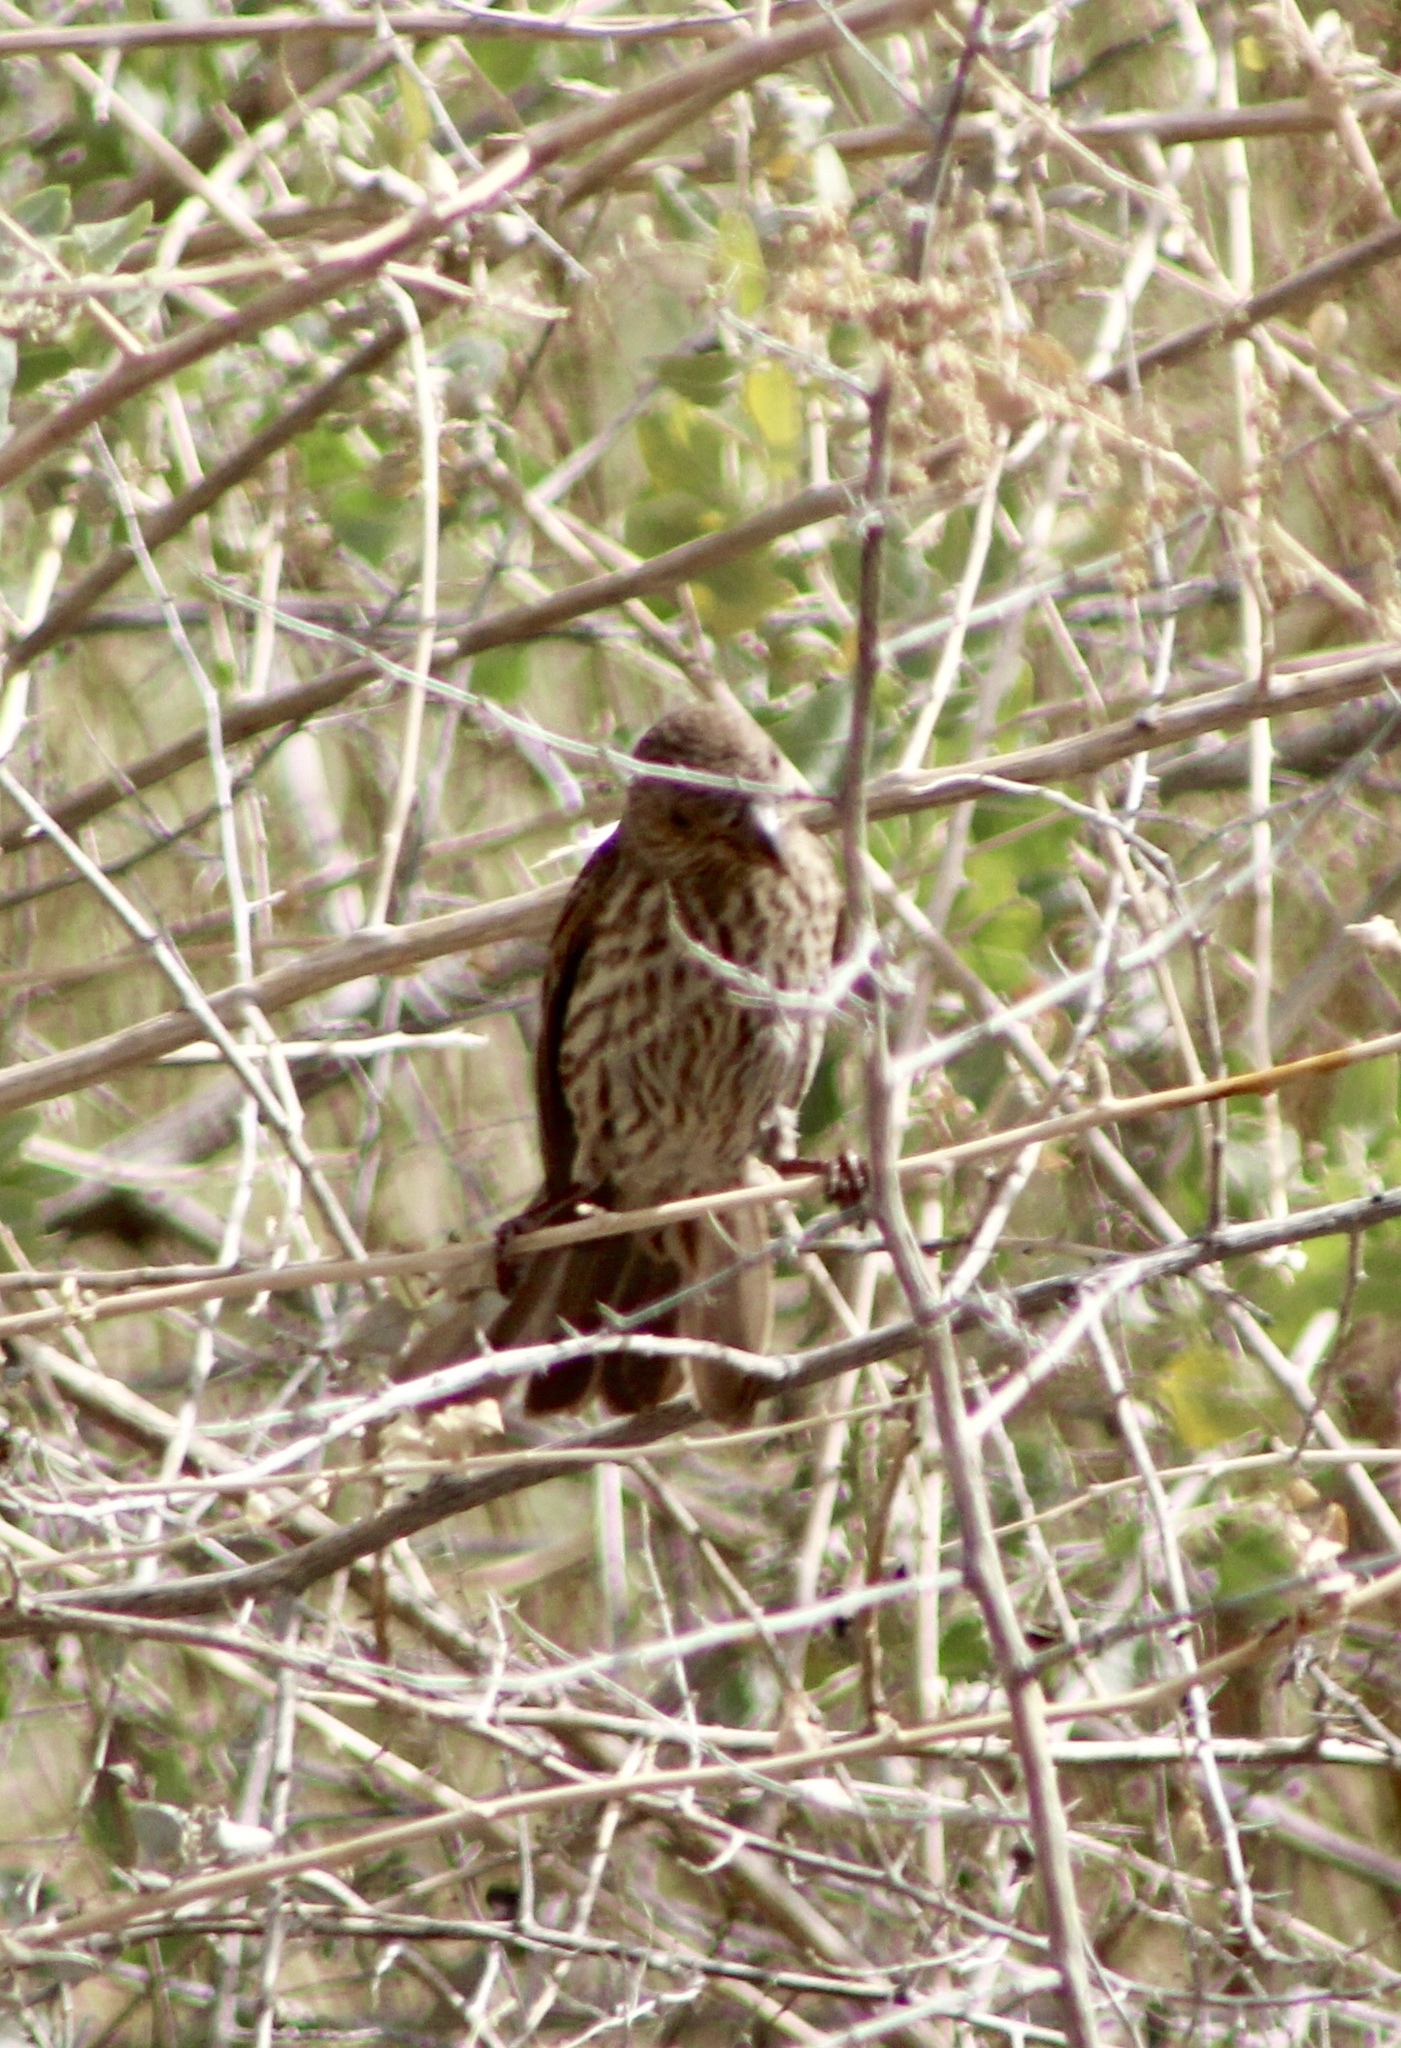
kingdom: Animalia
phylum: Chordata
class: Aves
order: Passeriformes
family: Fringillidae
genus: Haemorhous
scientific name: Haemorhous mexicanus
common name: House finch
